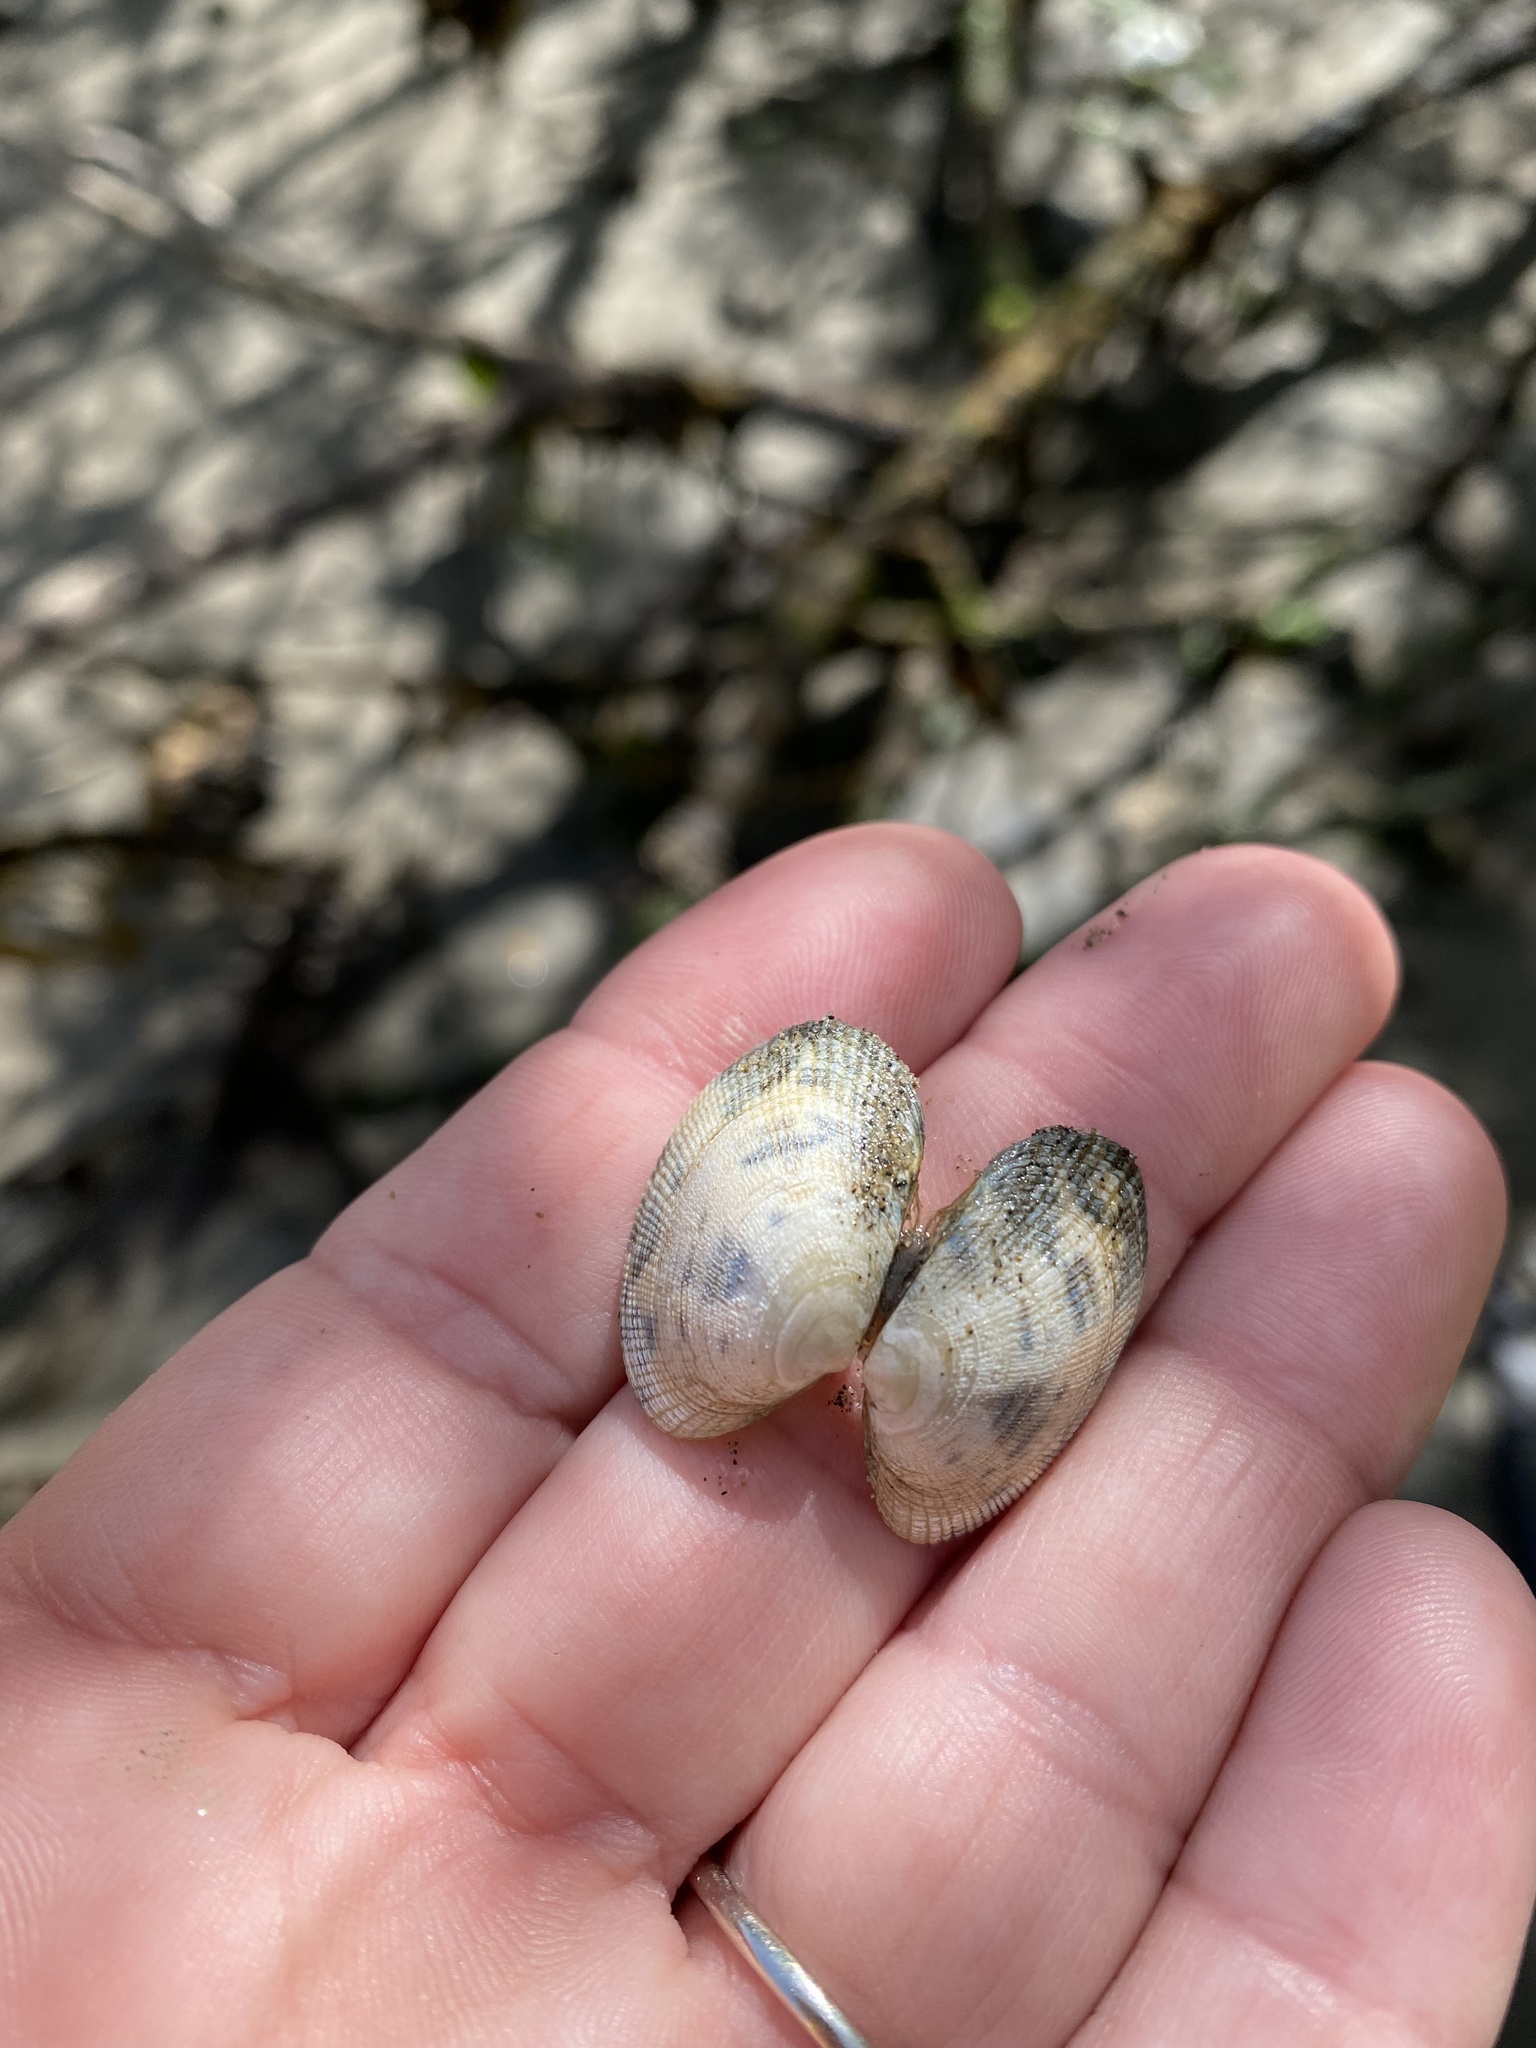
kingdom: Animalia
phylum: Mollusca
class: Bivalvia
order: Venerida
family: Veneridae
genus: Ruditapes
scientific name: Ruditapes philippinarum
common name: Manila clam
